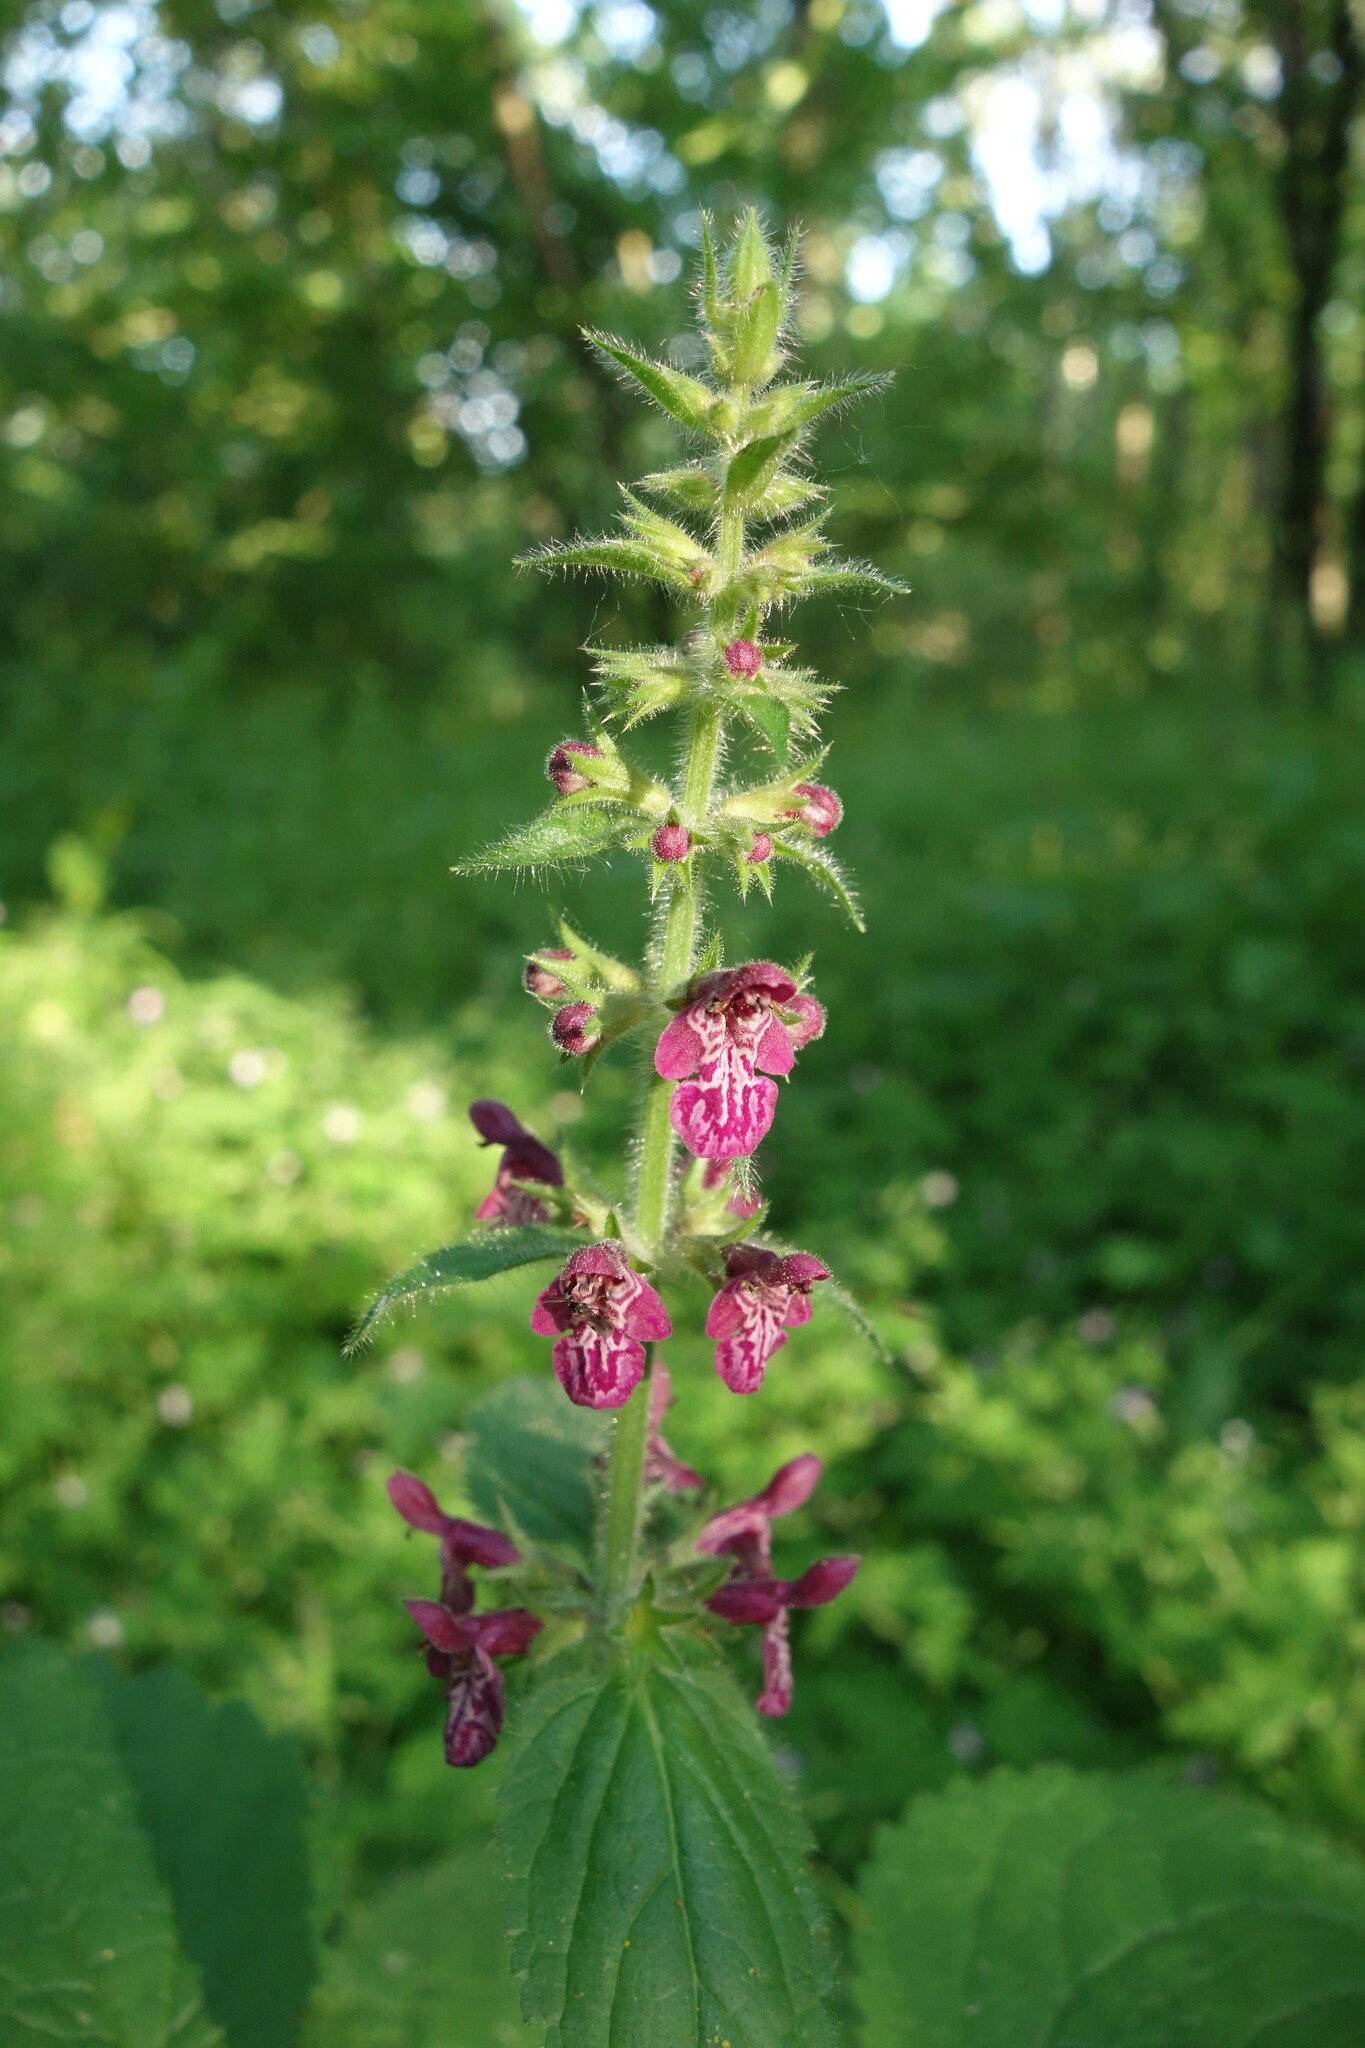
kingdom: Plantae
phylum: Tracheophyta
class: Magnoliopsida
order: Lamiales
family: Lamiaceae
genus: Stachys
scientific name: Stachys sylvatica
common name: Hedge woundwort
